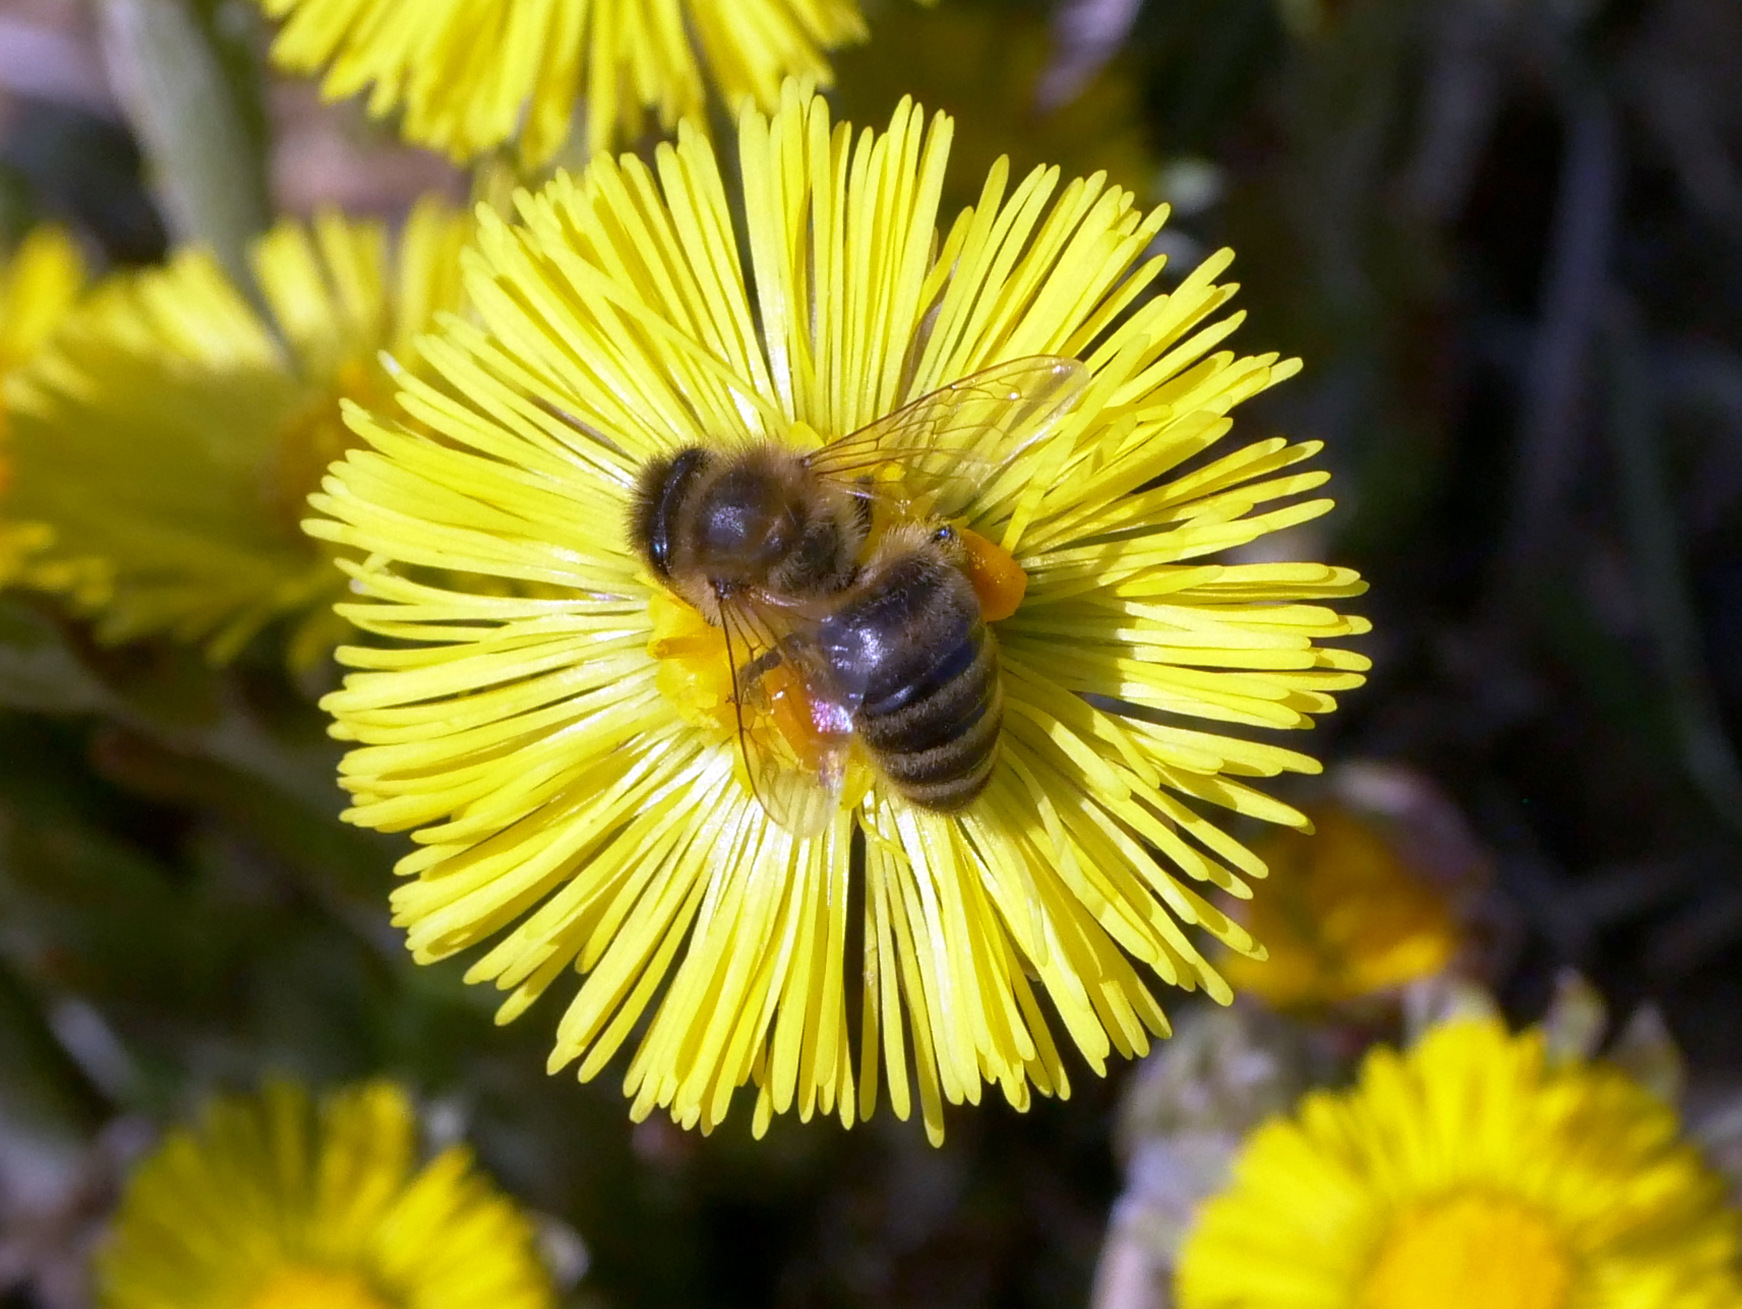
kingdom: Animalia
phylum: Arthropoda
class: Insecta
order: Hymenoptera
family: Apidae
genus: Apis
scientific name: Apis mellifera
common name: Honey bee
